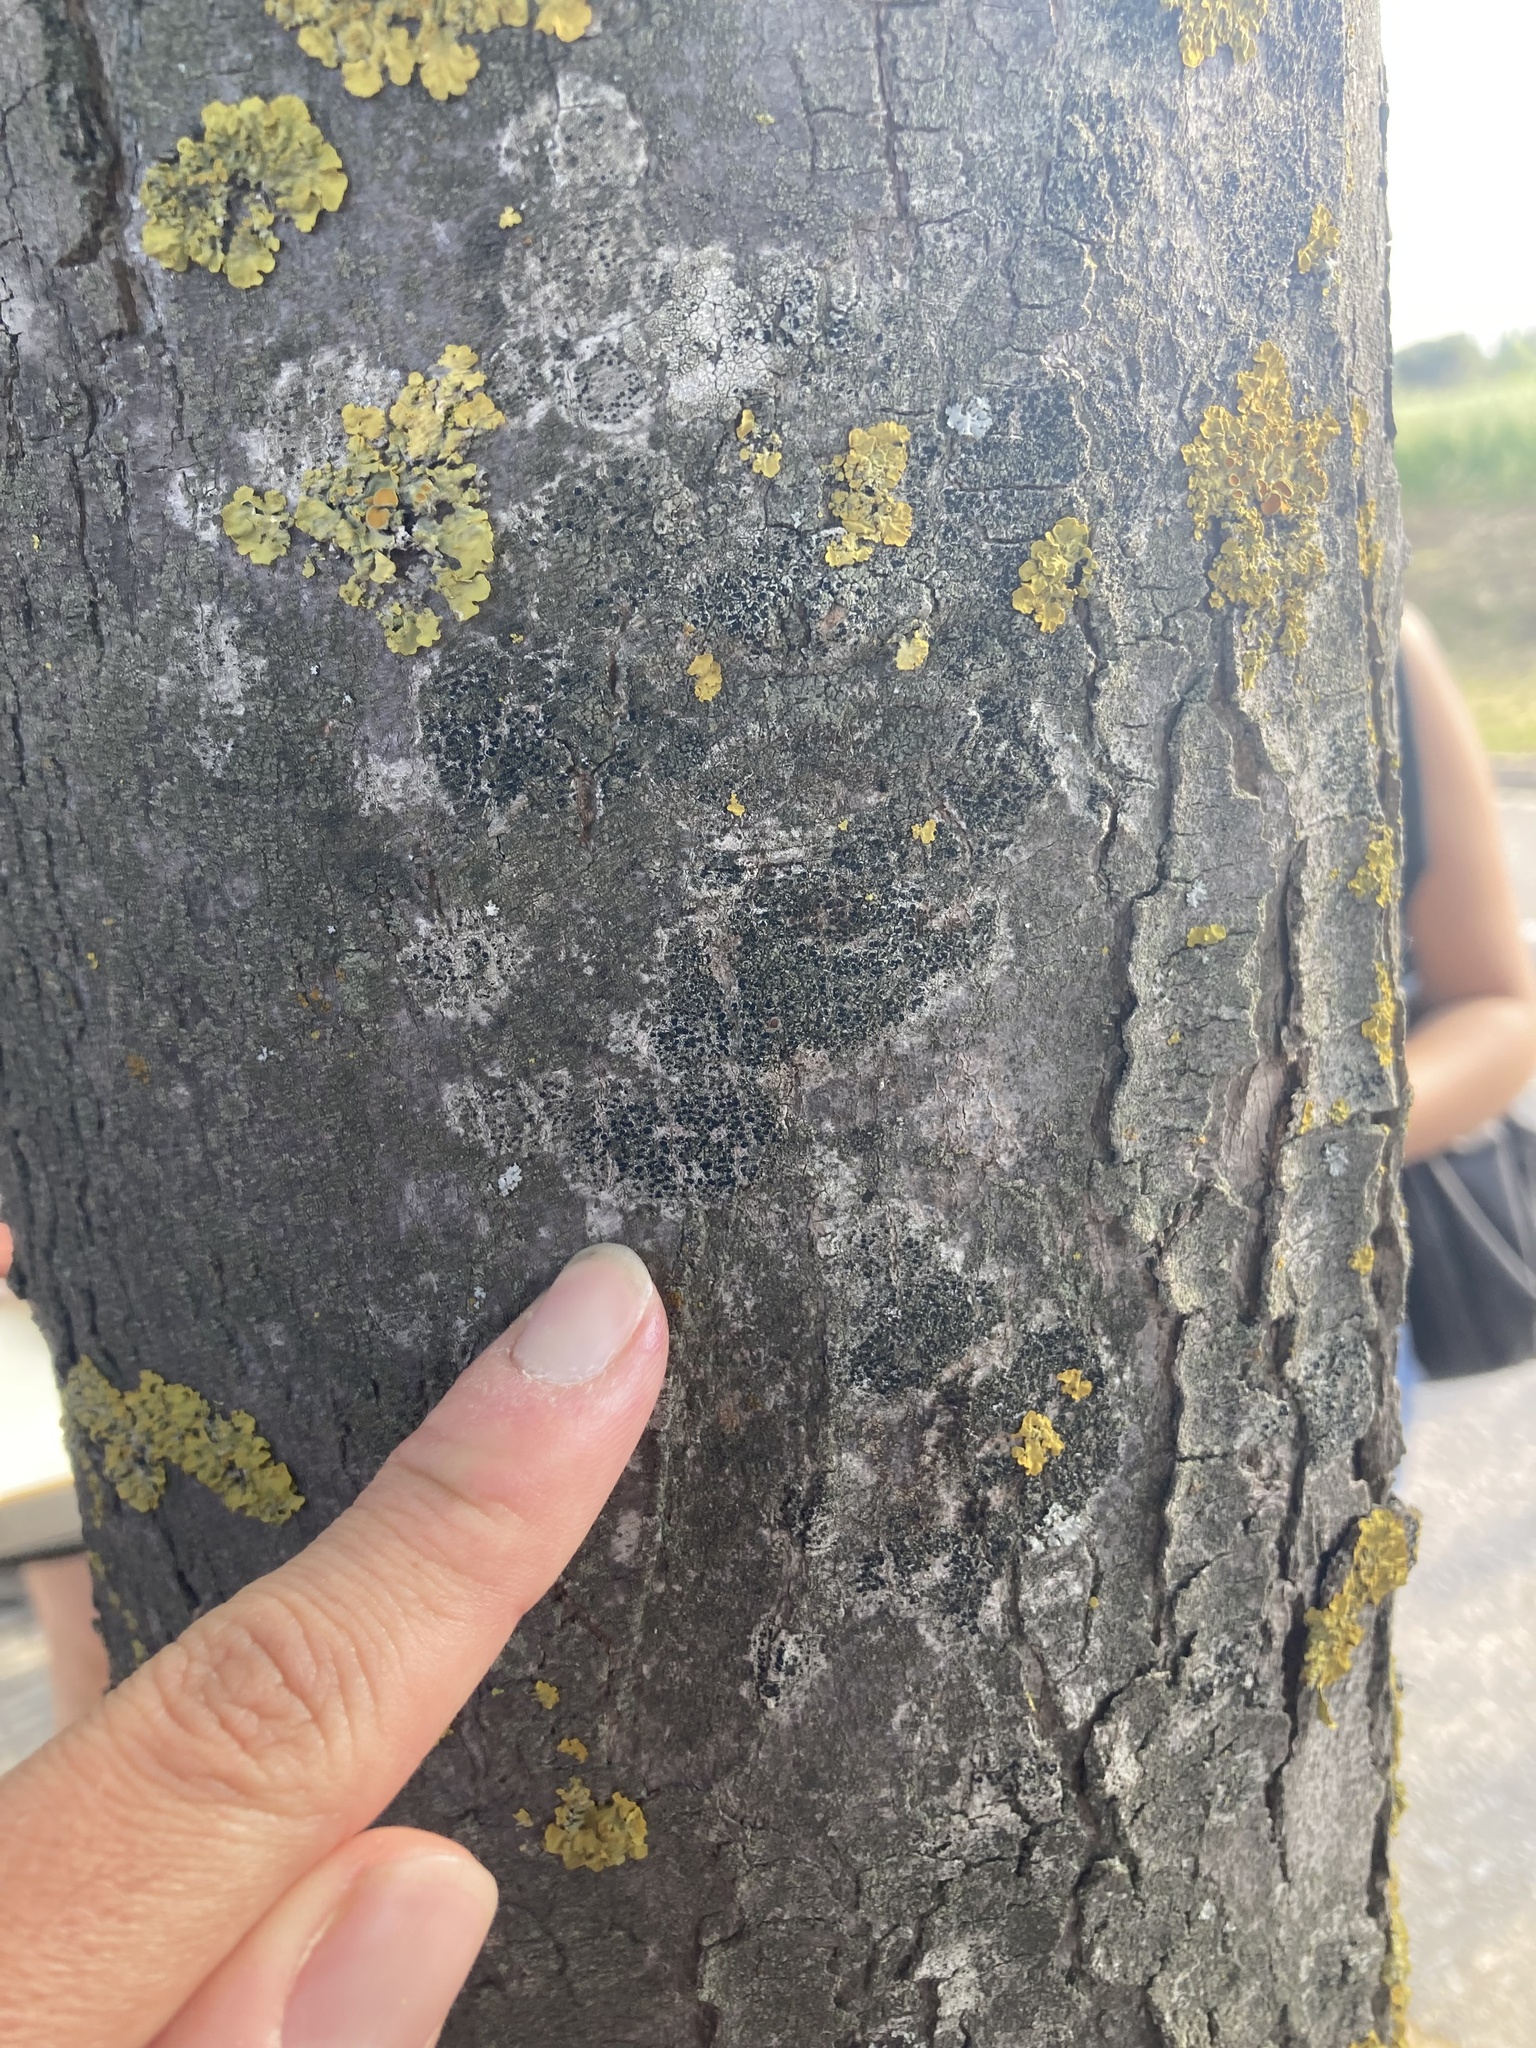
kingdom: Fungi
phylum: Ascomycota
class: Lecanoromycetes
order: Lecanorales
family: Lecanoraceae
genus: Lecidella
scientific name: Lecidella elaeochroma
